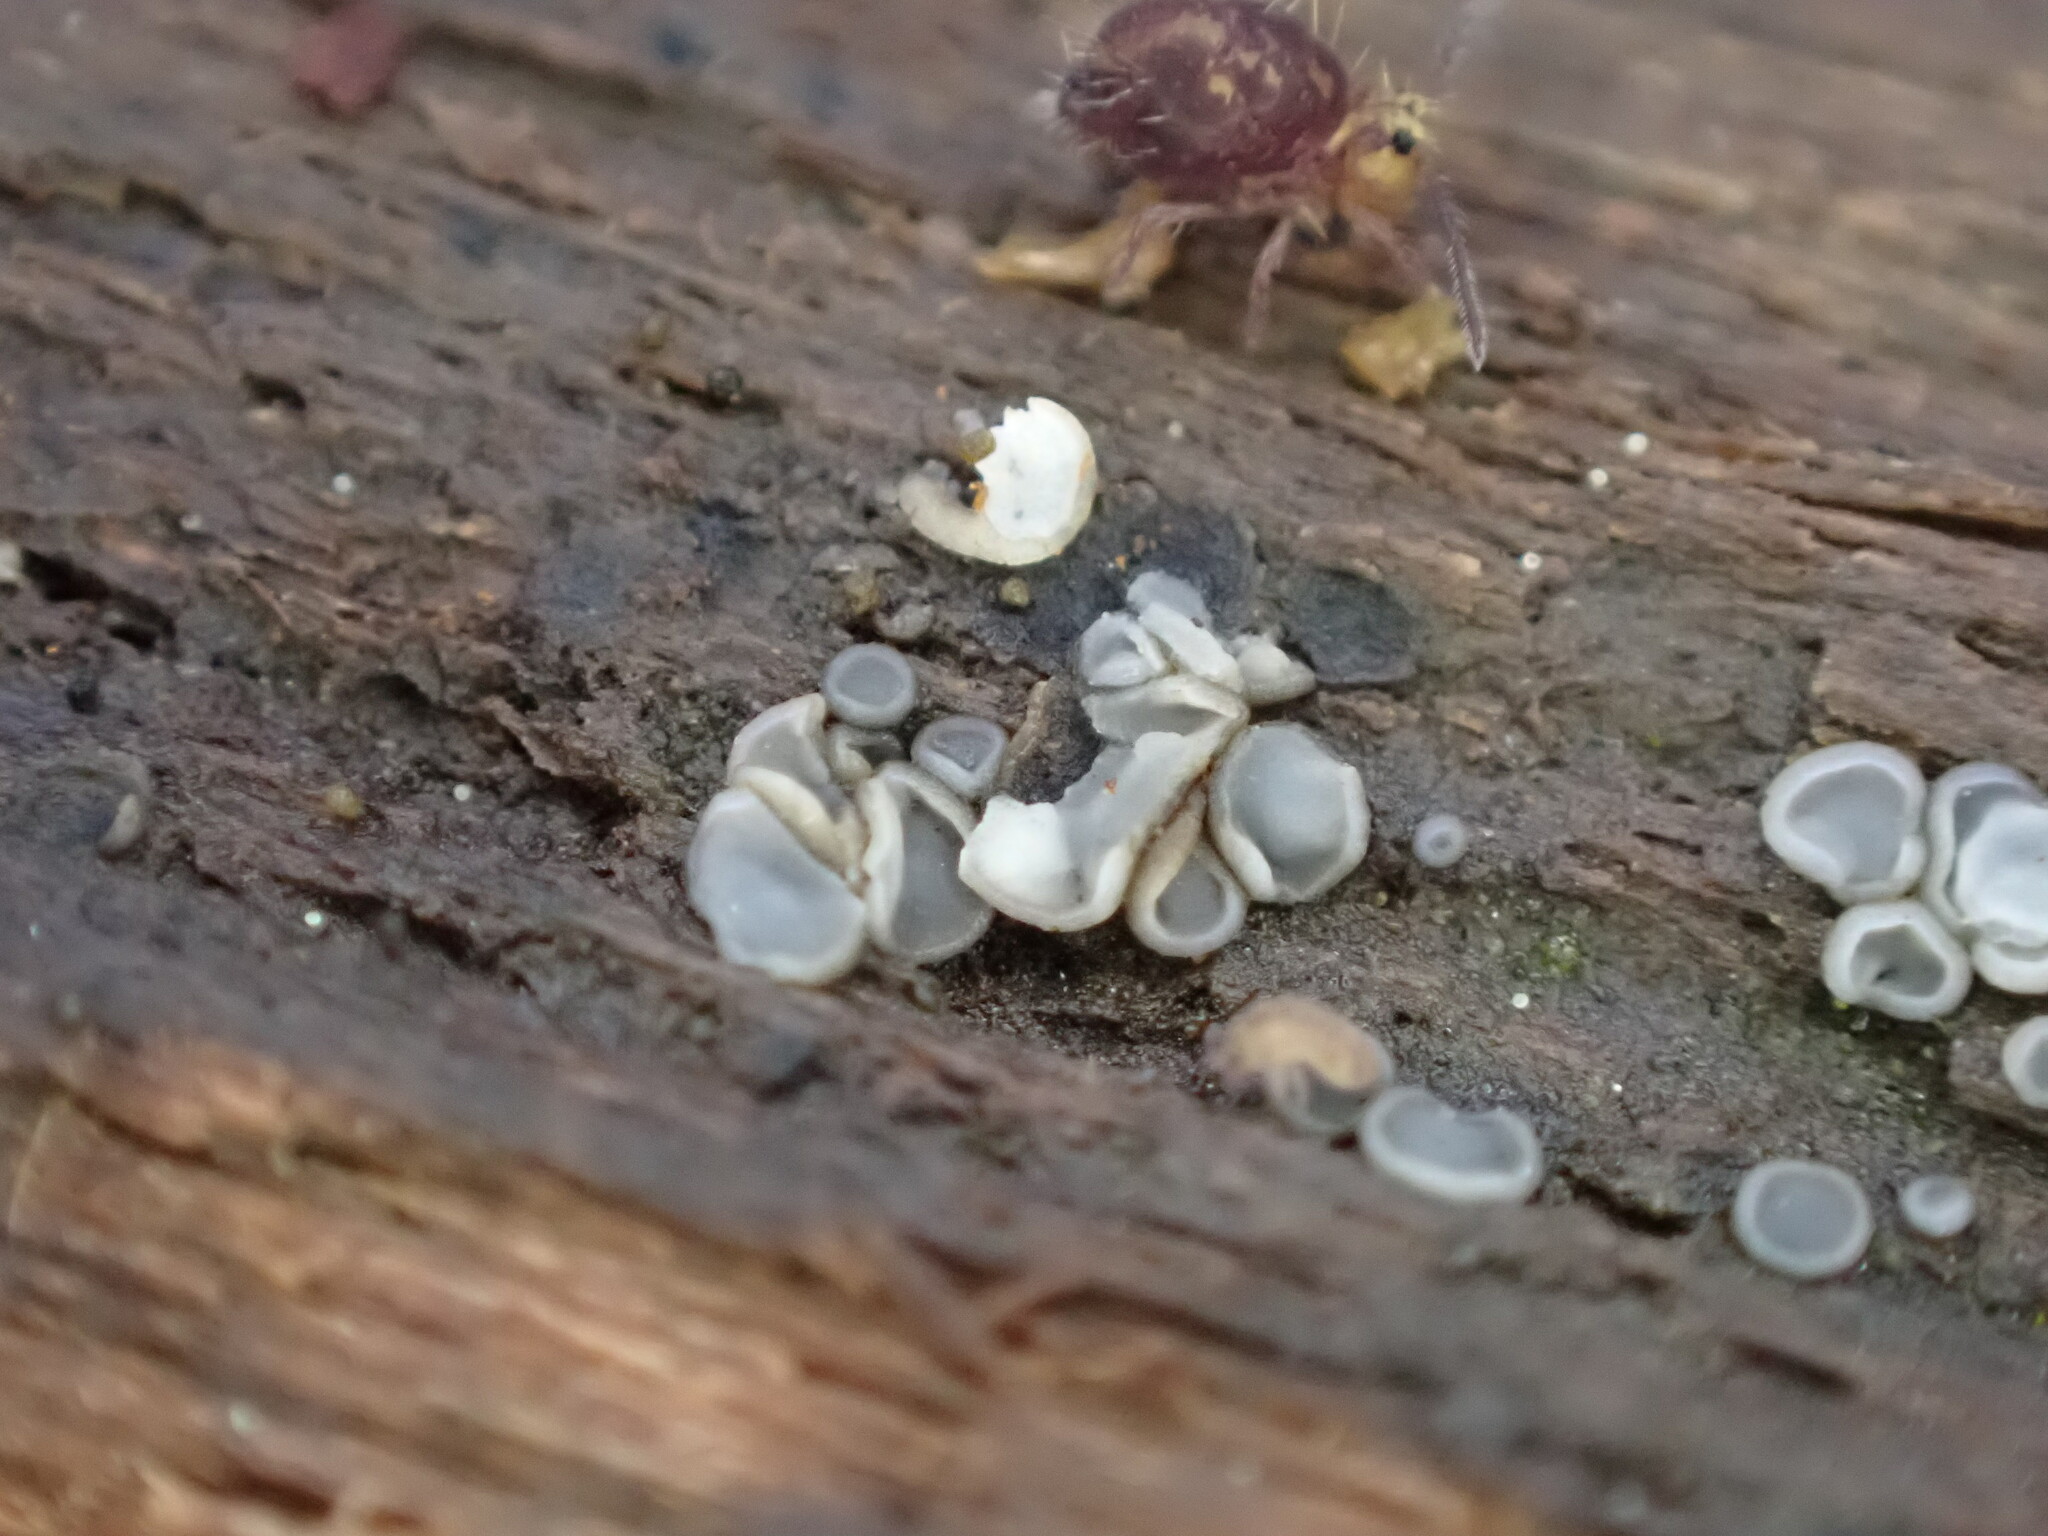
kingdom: Fungi
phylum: Ascomycota
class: Leotiomycetes
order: Helotiales
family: Mollisiaceae
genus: Mollisia
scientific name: Mollisia cinerea
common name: Common grey disco
